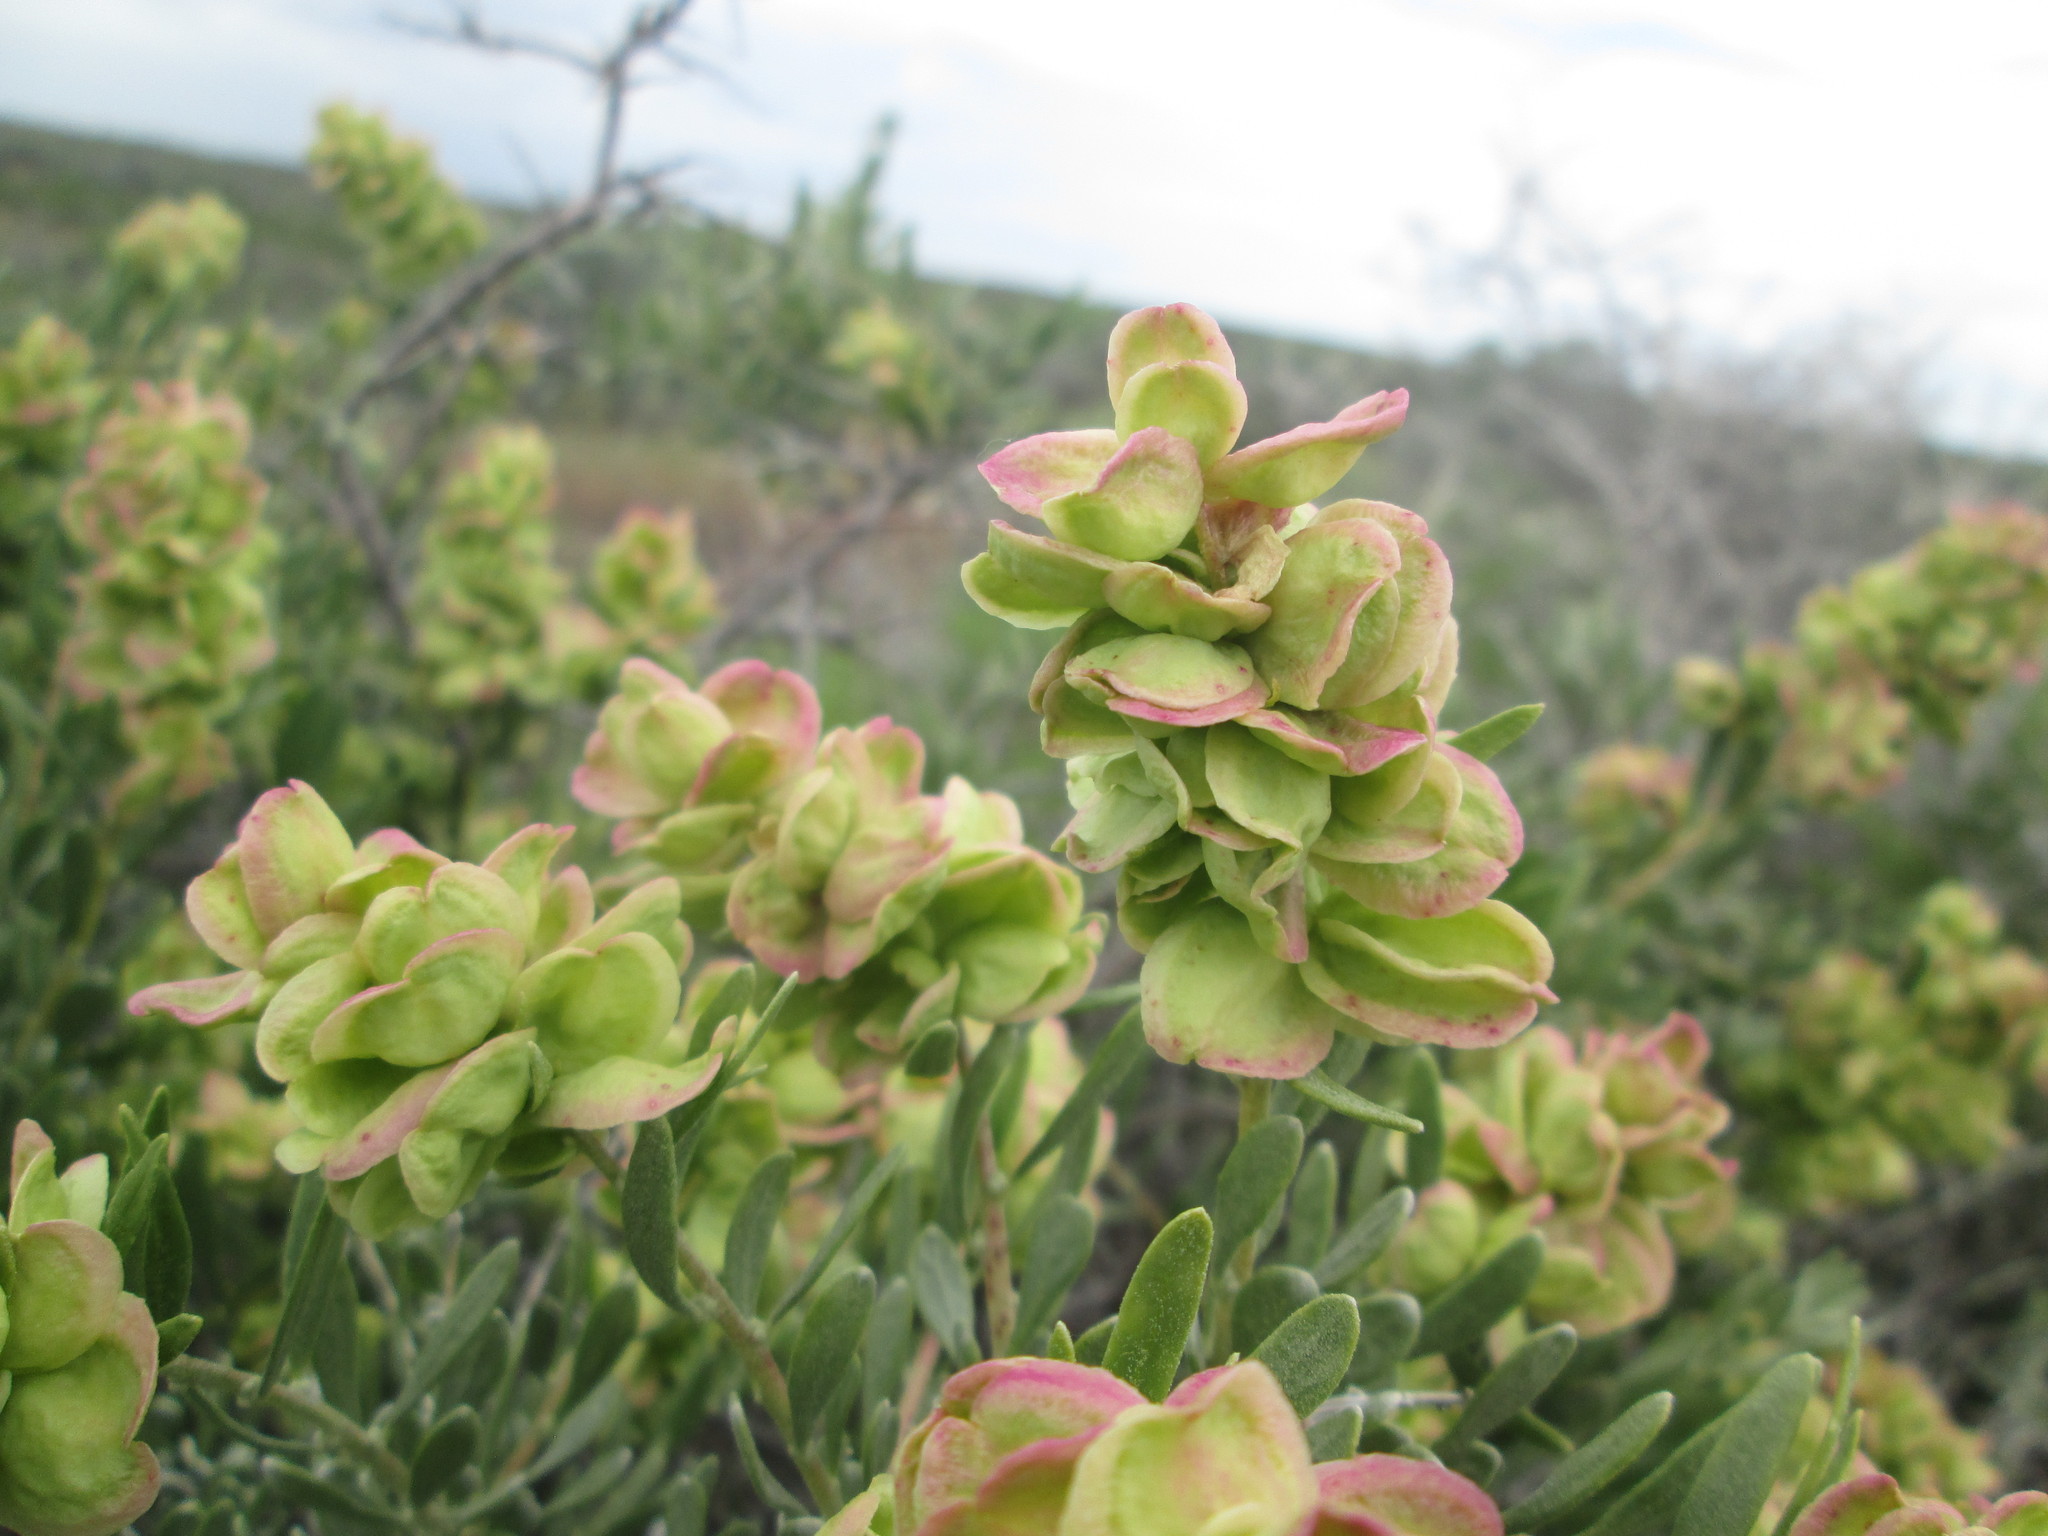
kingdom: Plantae
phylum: Tracheophyta
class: Magnoliopsida
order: Caryophyllales
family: Amaranthaceae
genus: Grayia
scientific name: Grayia spinosa
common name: Spiny hopsage
